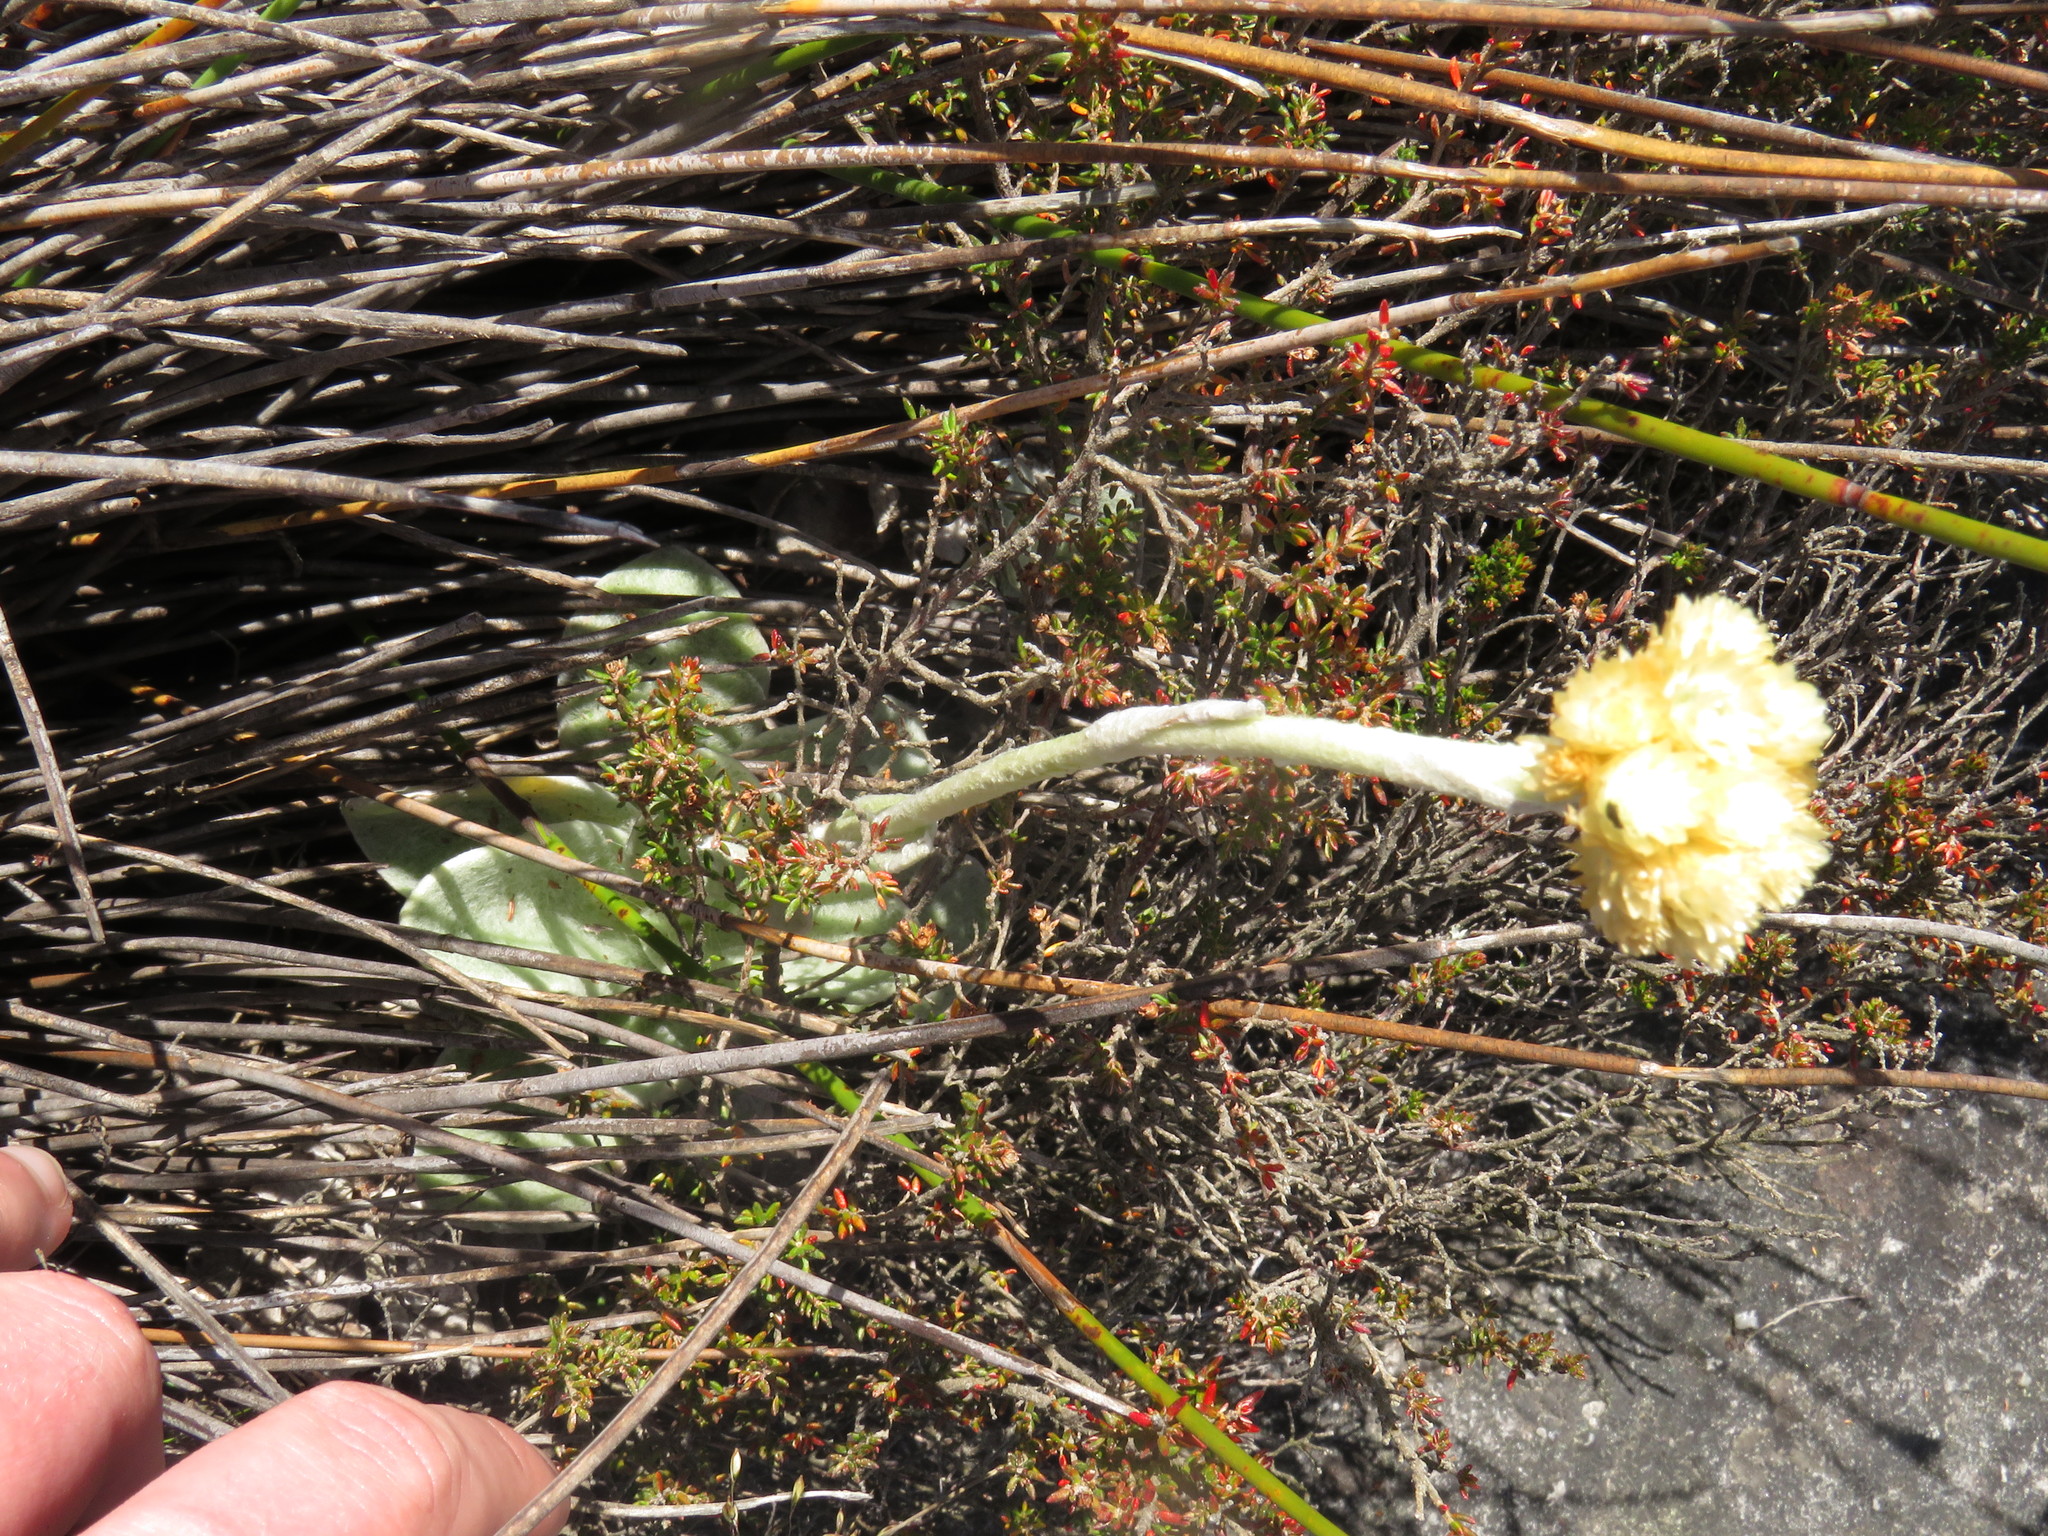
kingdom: Plantae
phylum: Tracheophyta
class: Magnoliopsida
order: Asterales
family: Asteraceae
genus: Helichrysum
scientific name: Helichrysum grandiflorum
